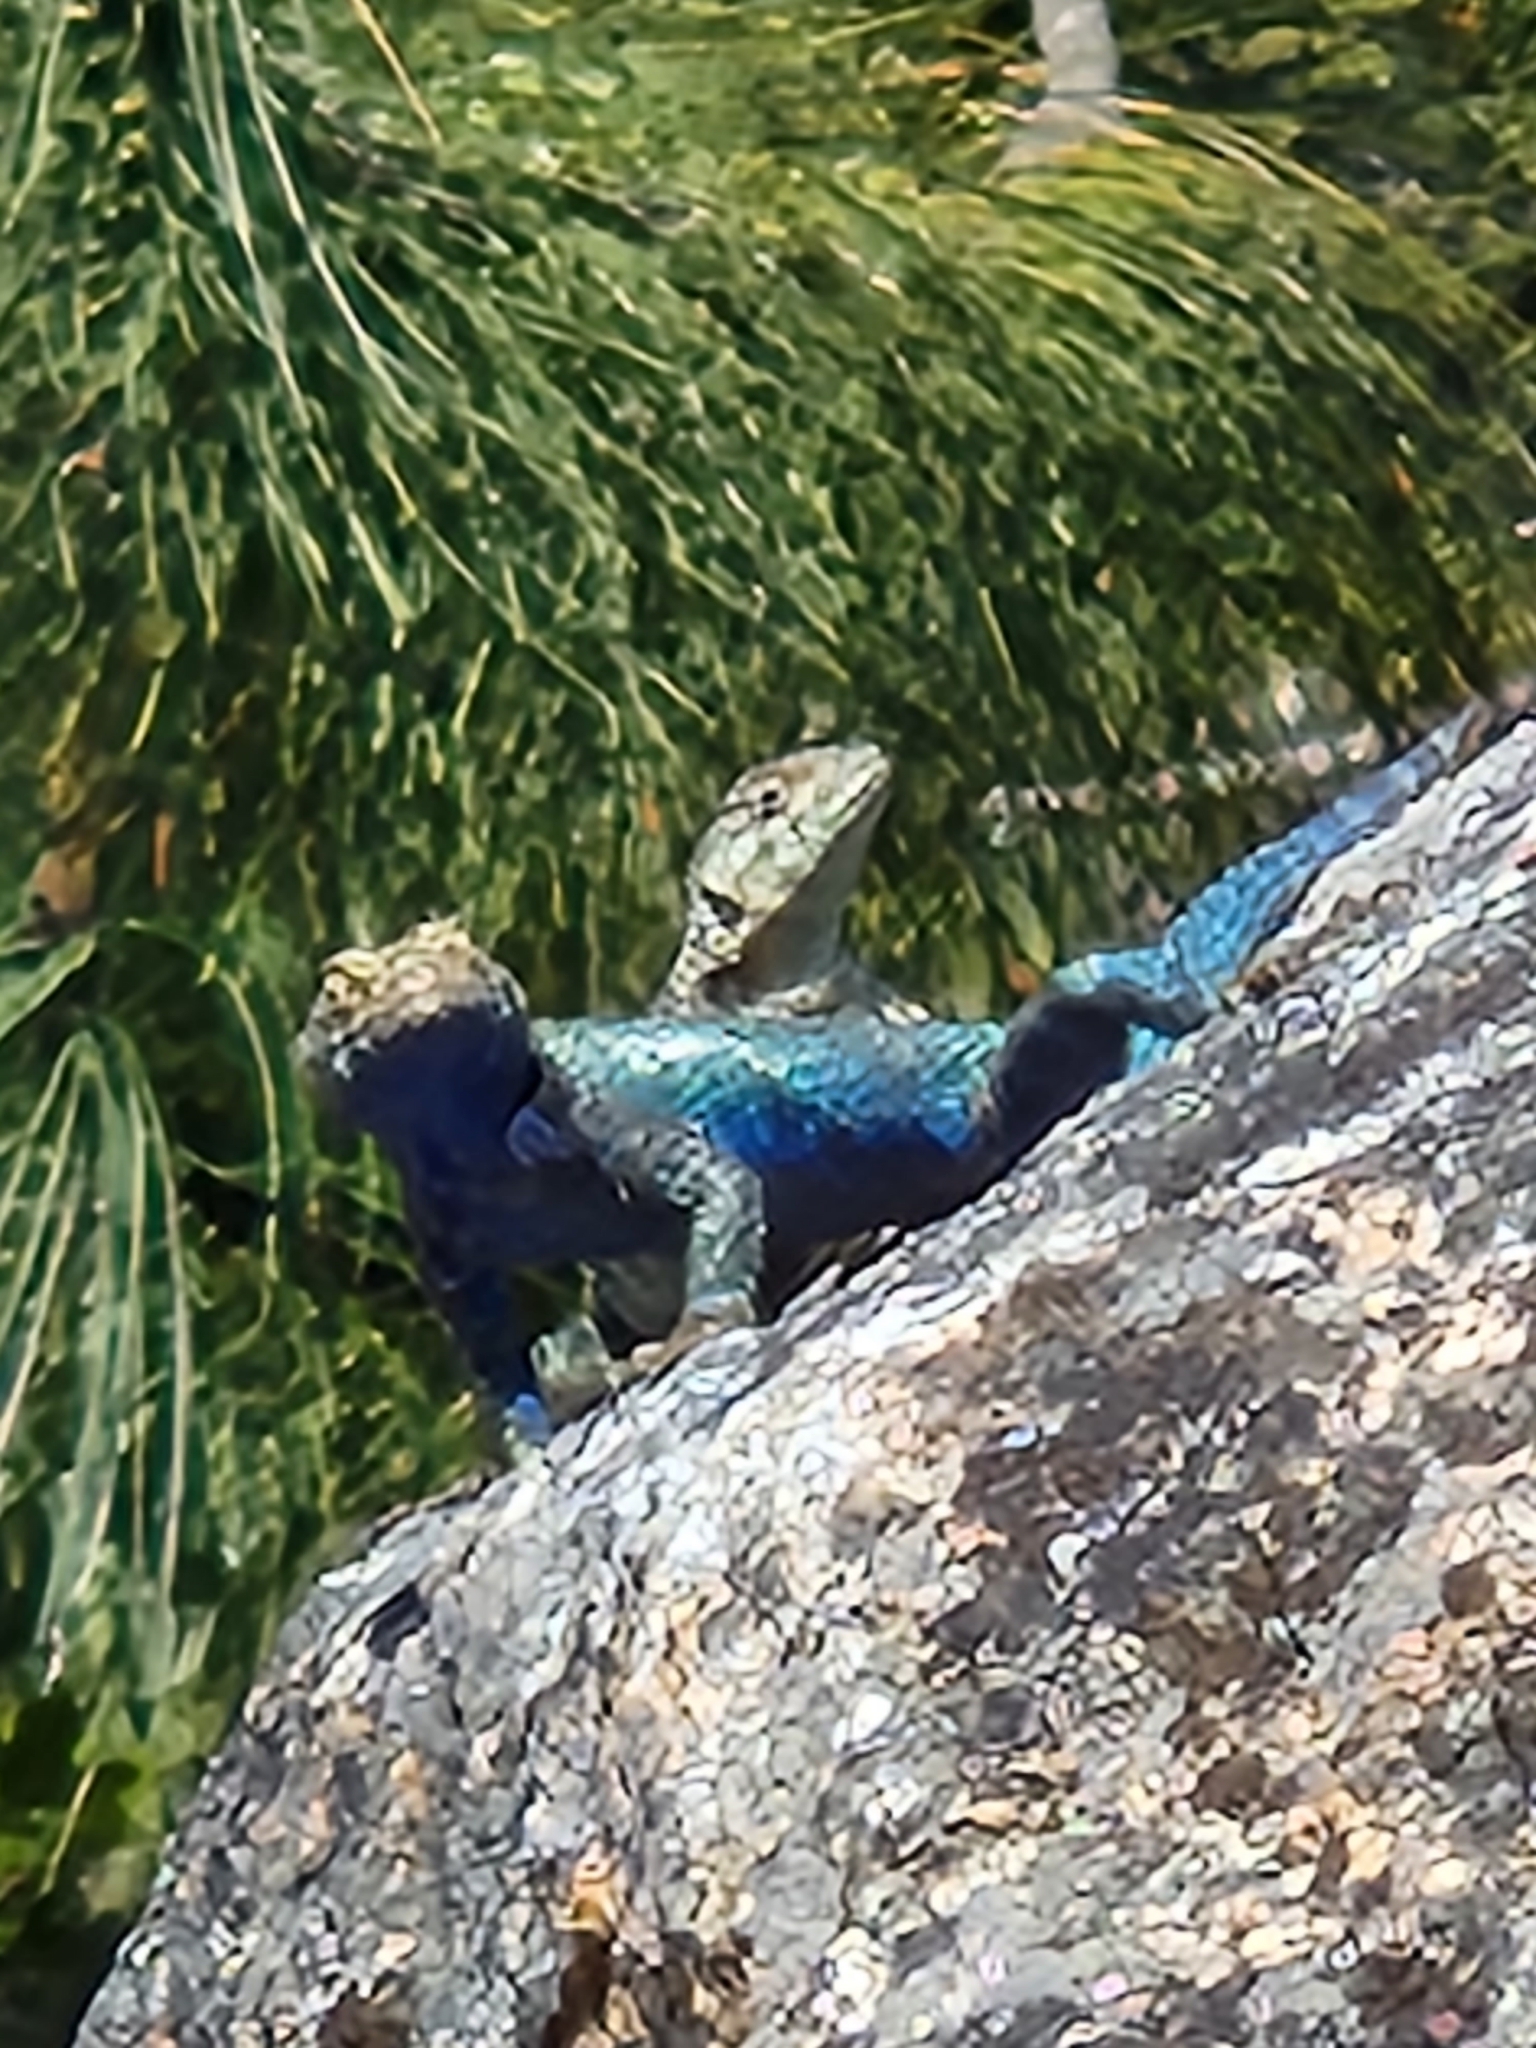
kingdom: Animalia
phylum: Chordata
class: Squamata
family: Phrynosomatidae
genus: Sceloporus
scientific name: Sceloporus orcutti
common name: Granite spiny lizard
